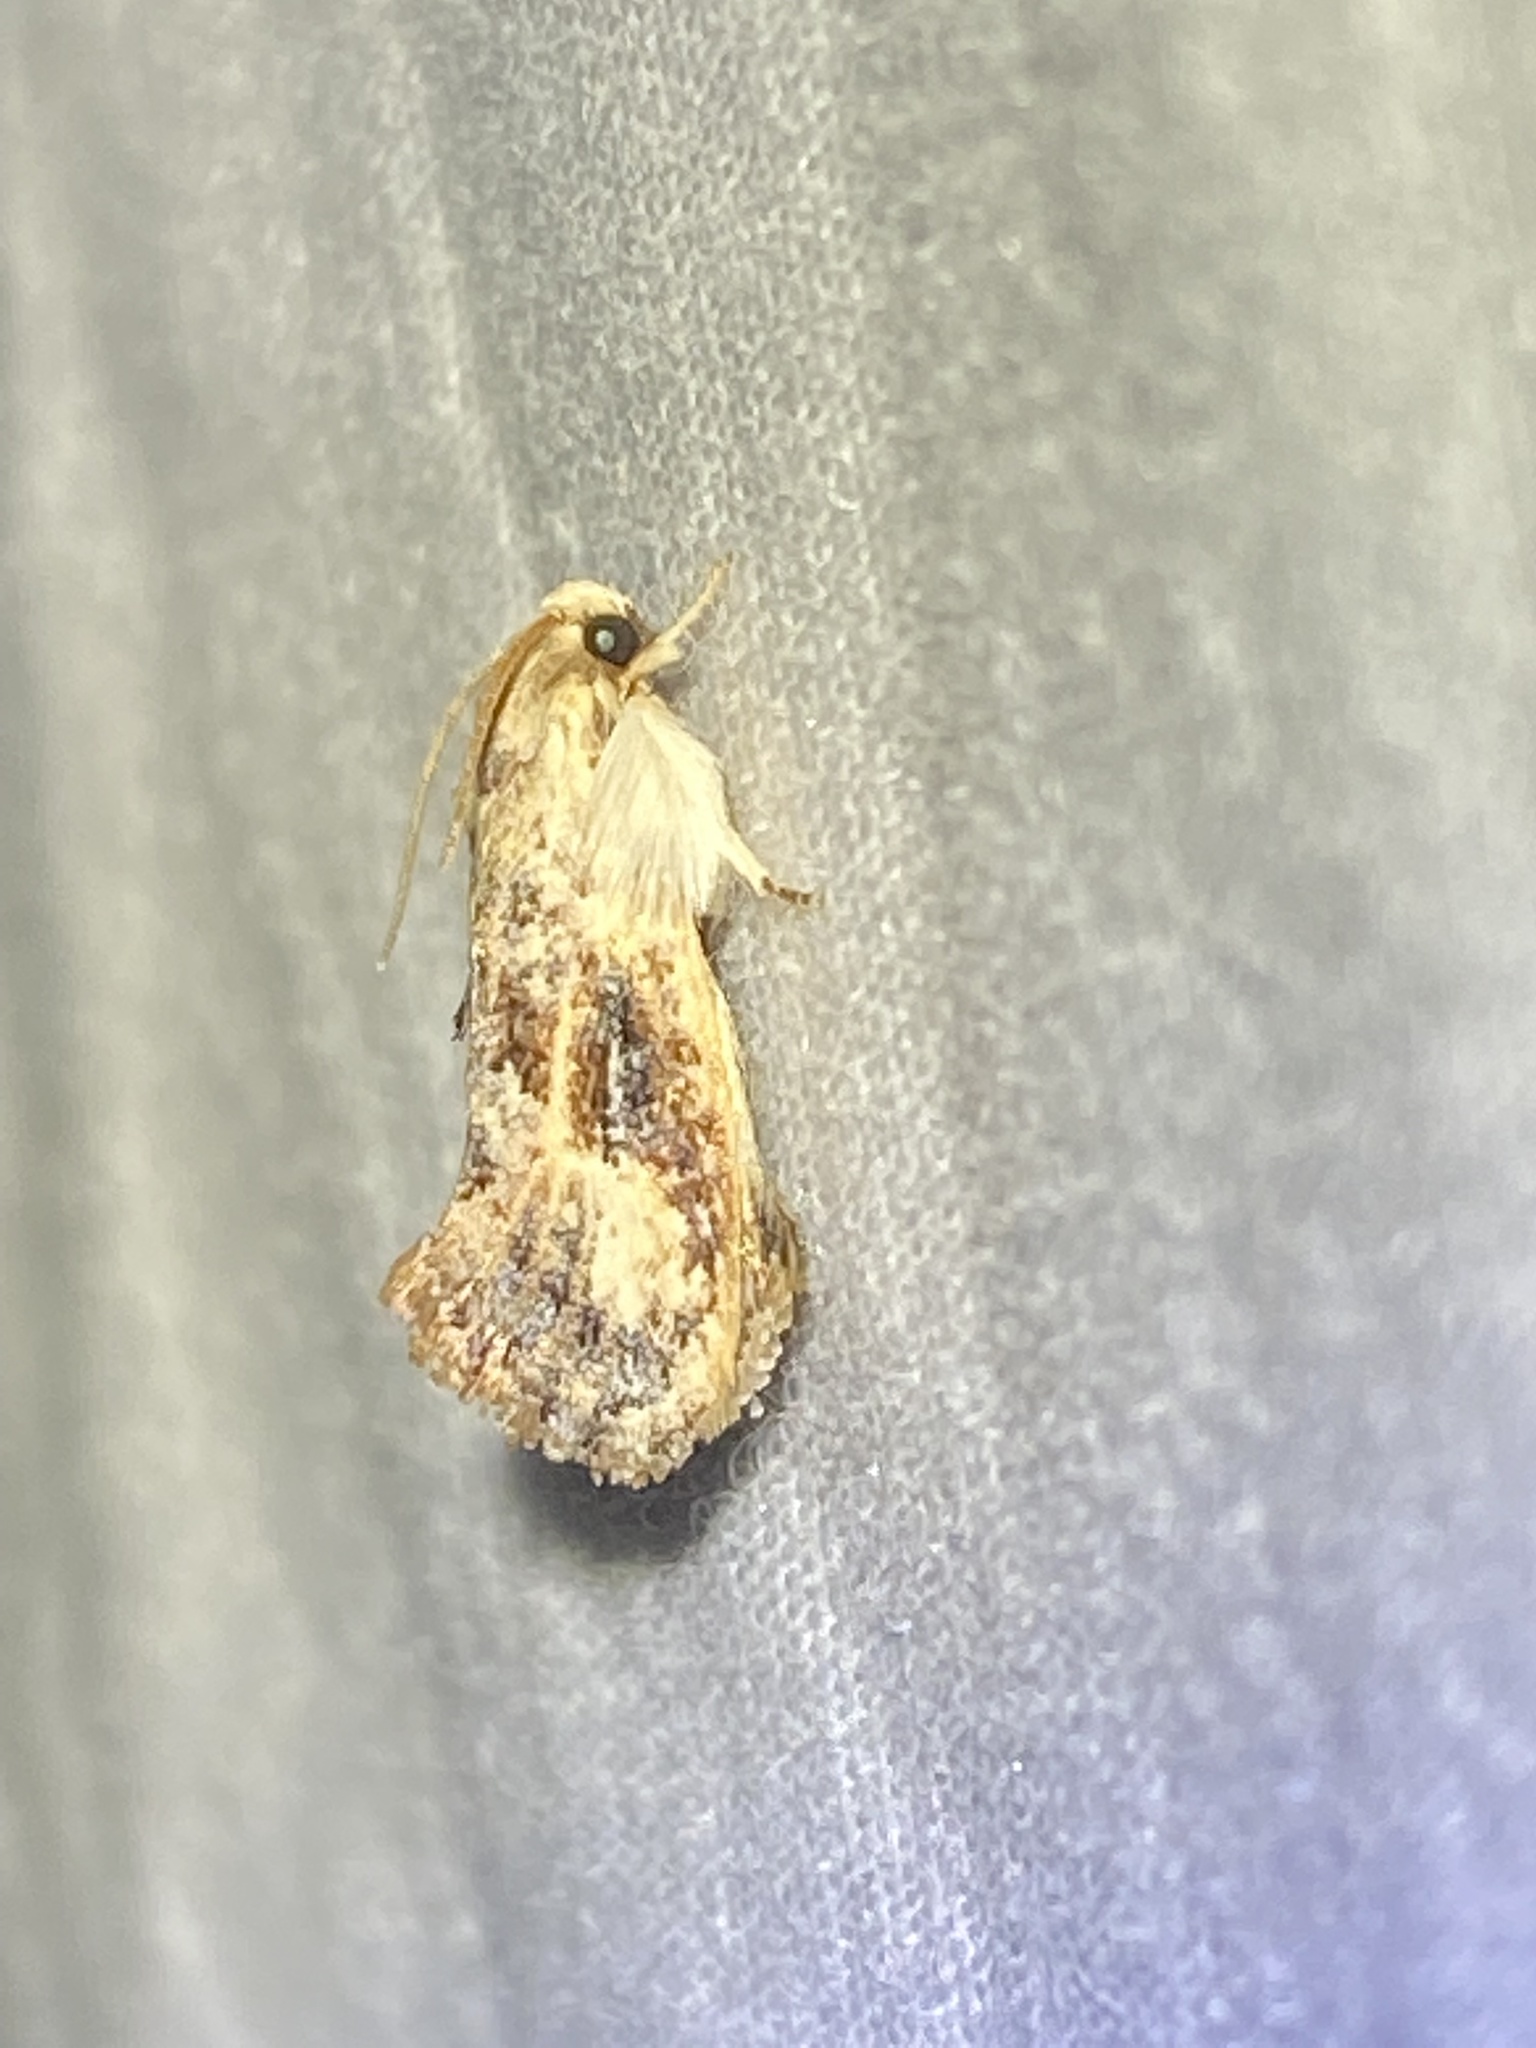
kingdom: Animalia
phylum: Arthropoda
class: Insecta
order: Lepidoptera
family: Tineidae
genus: Acrolophus
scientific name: Acrolophus mycetophagus
